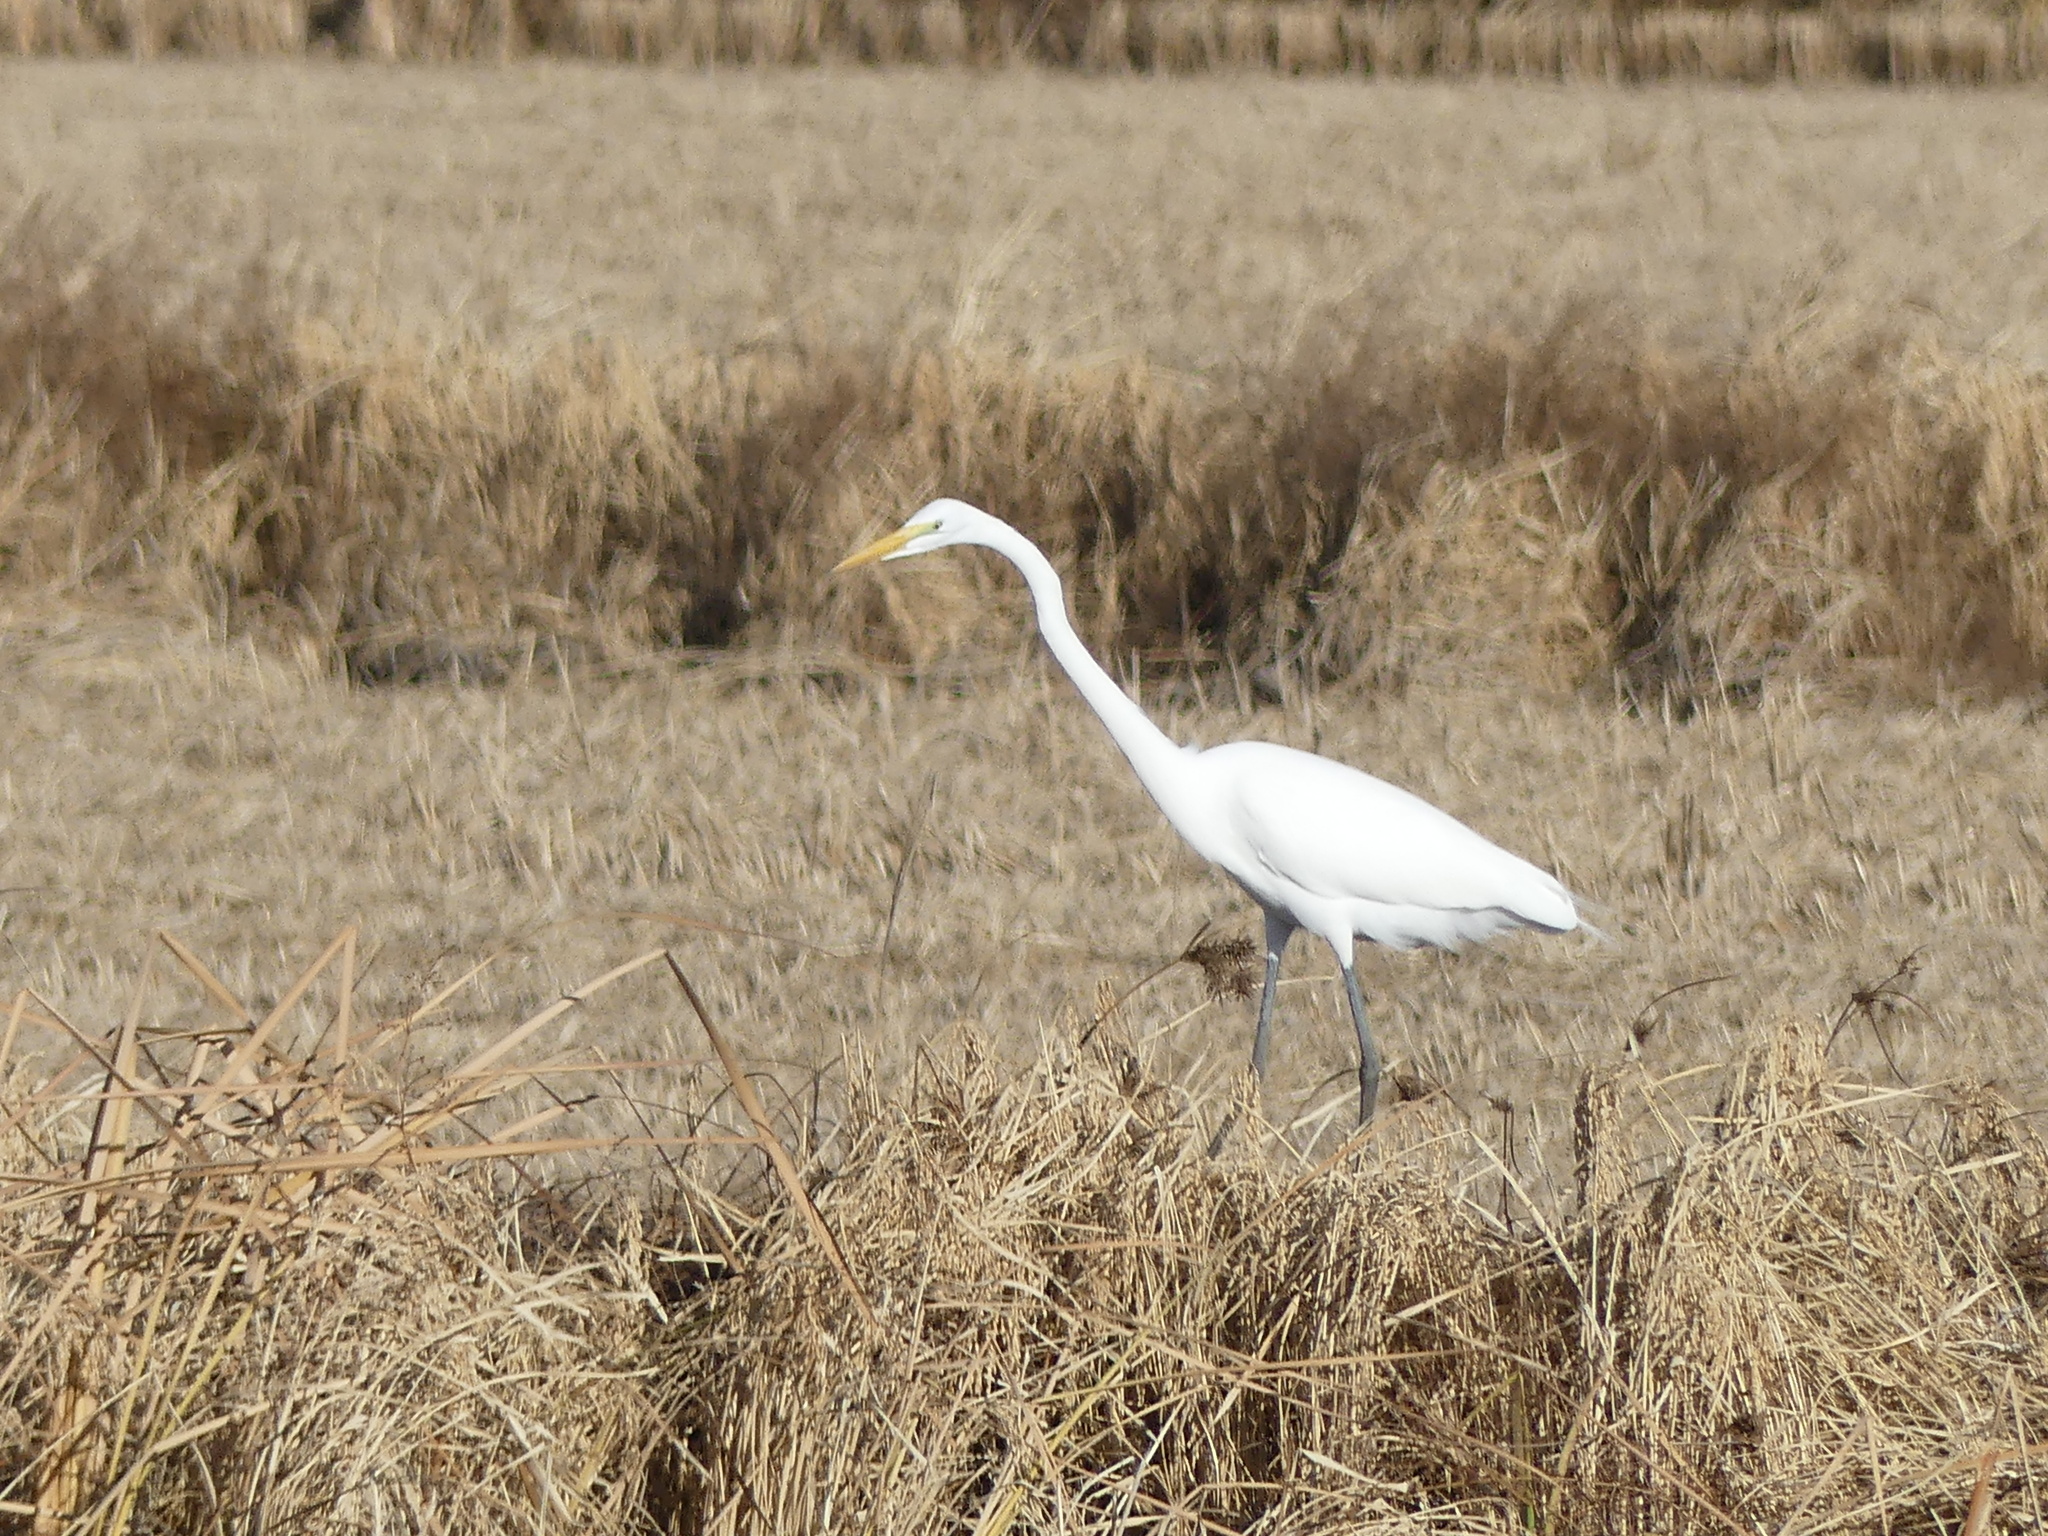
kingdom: Animalia
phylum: Chordata
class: Aves
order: Pelecaniformes
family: Ardeidae
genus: Ardea
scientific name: Ardea alba
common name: Great egret
